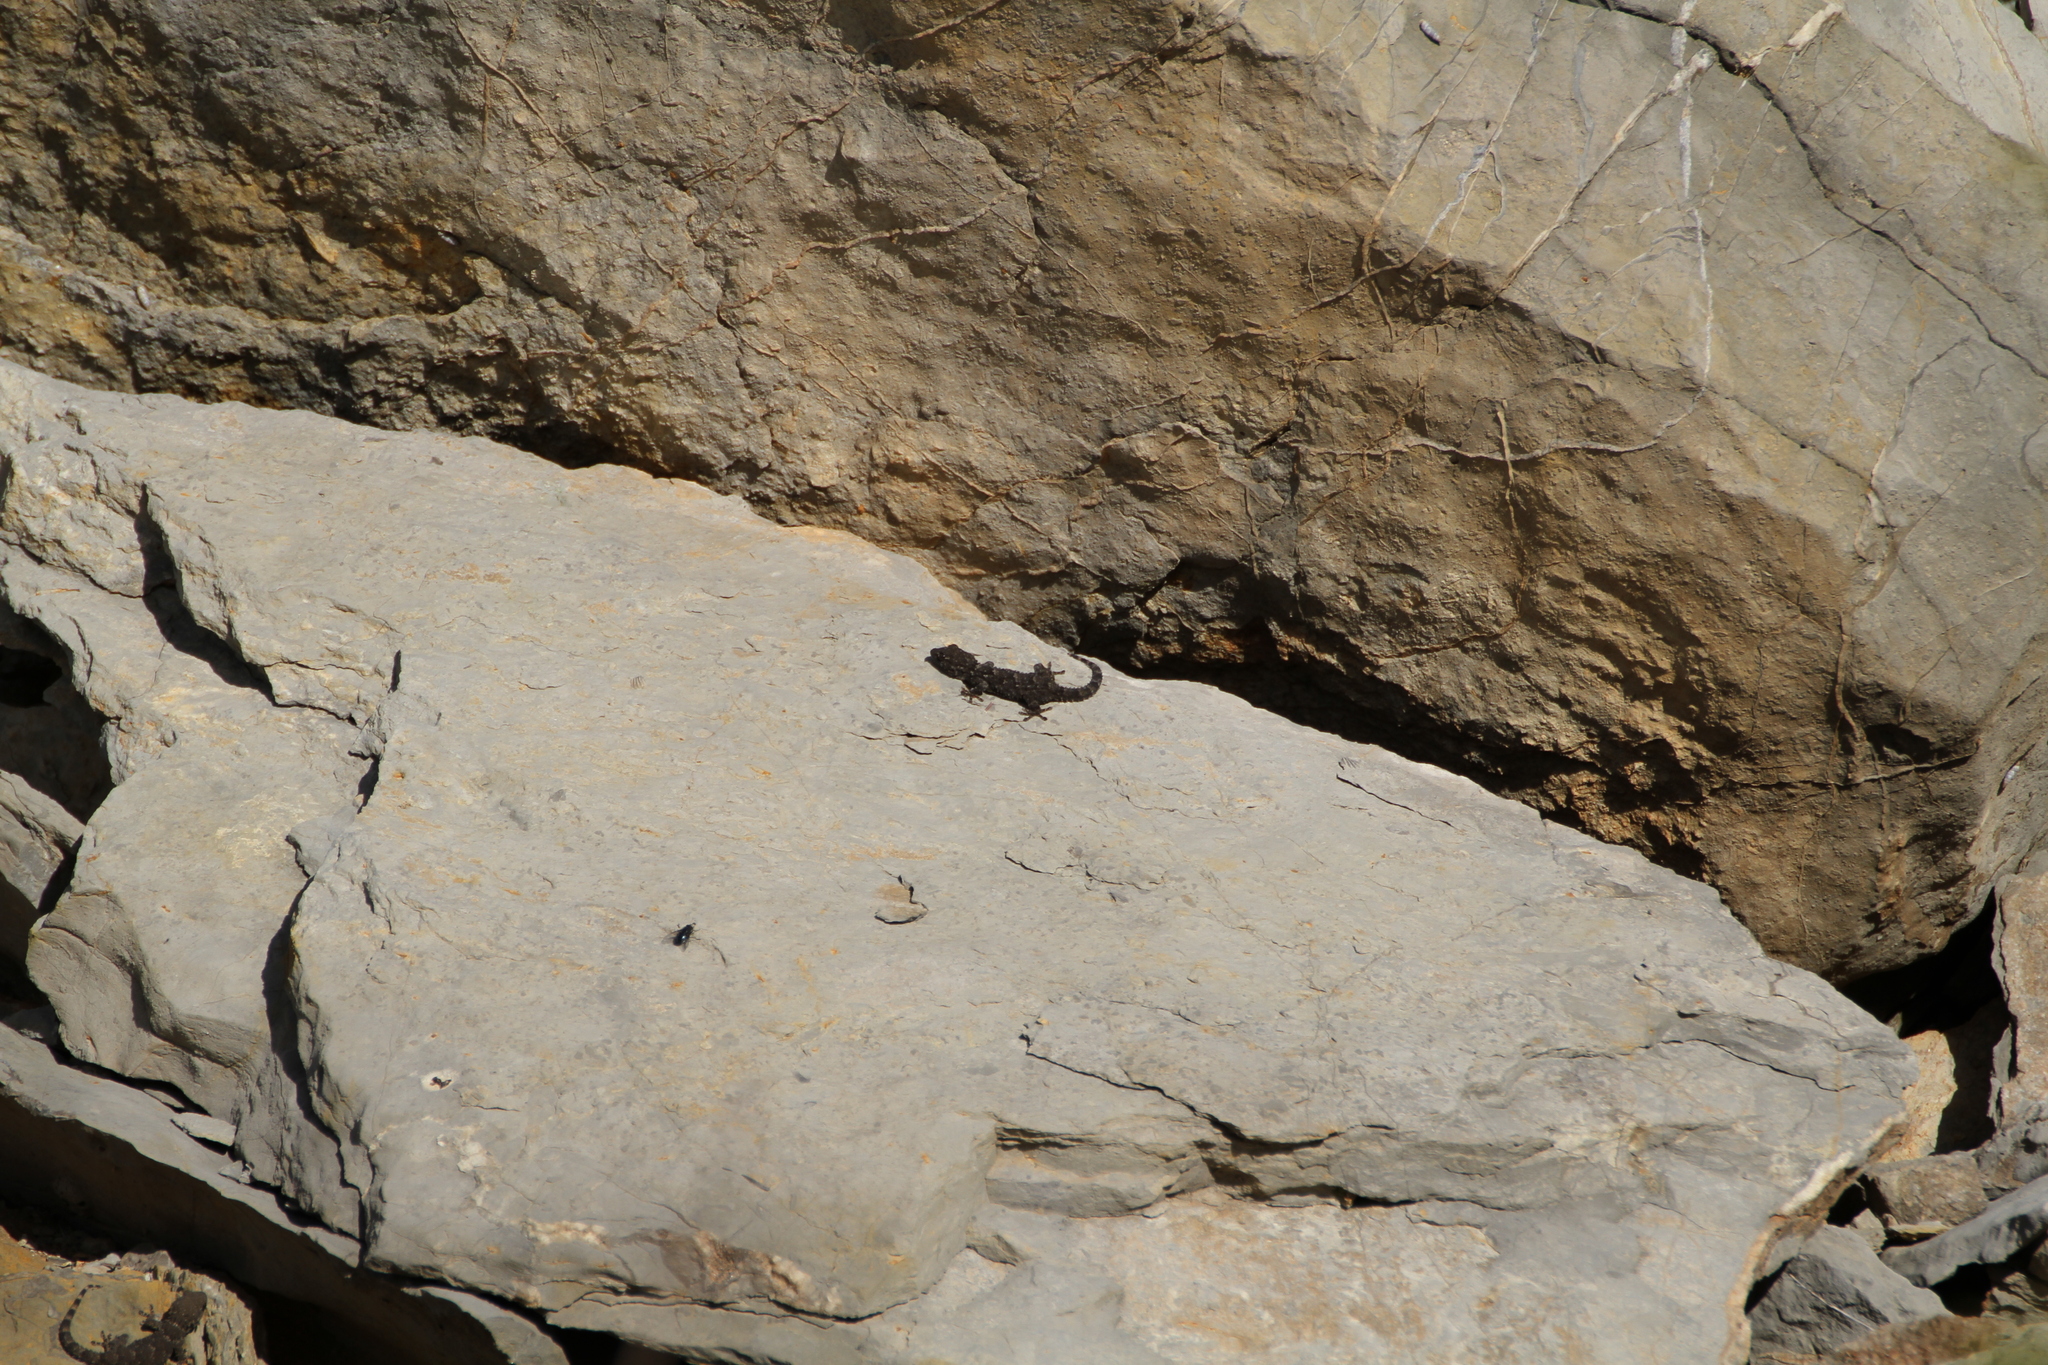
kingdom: Animalia
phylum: Chordata
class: Squamata
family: Phyllodactylidae
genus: Tarentola
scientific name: Tarentola mauritanica
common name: Moorish gecko
